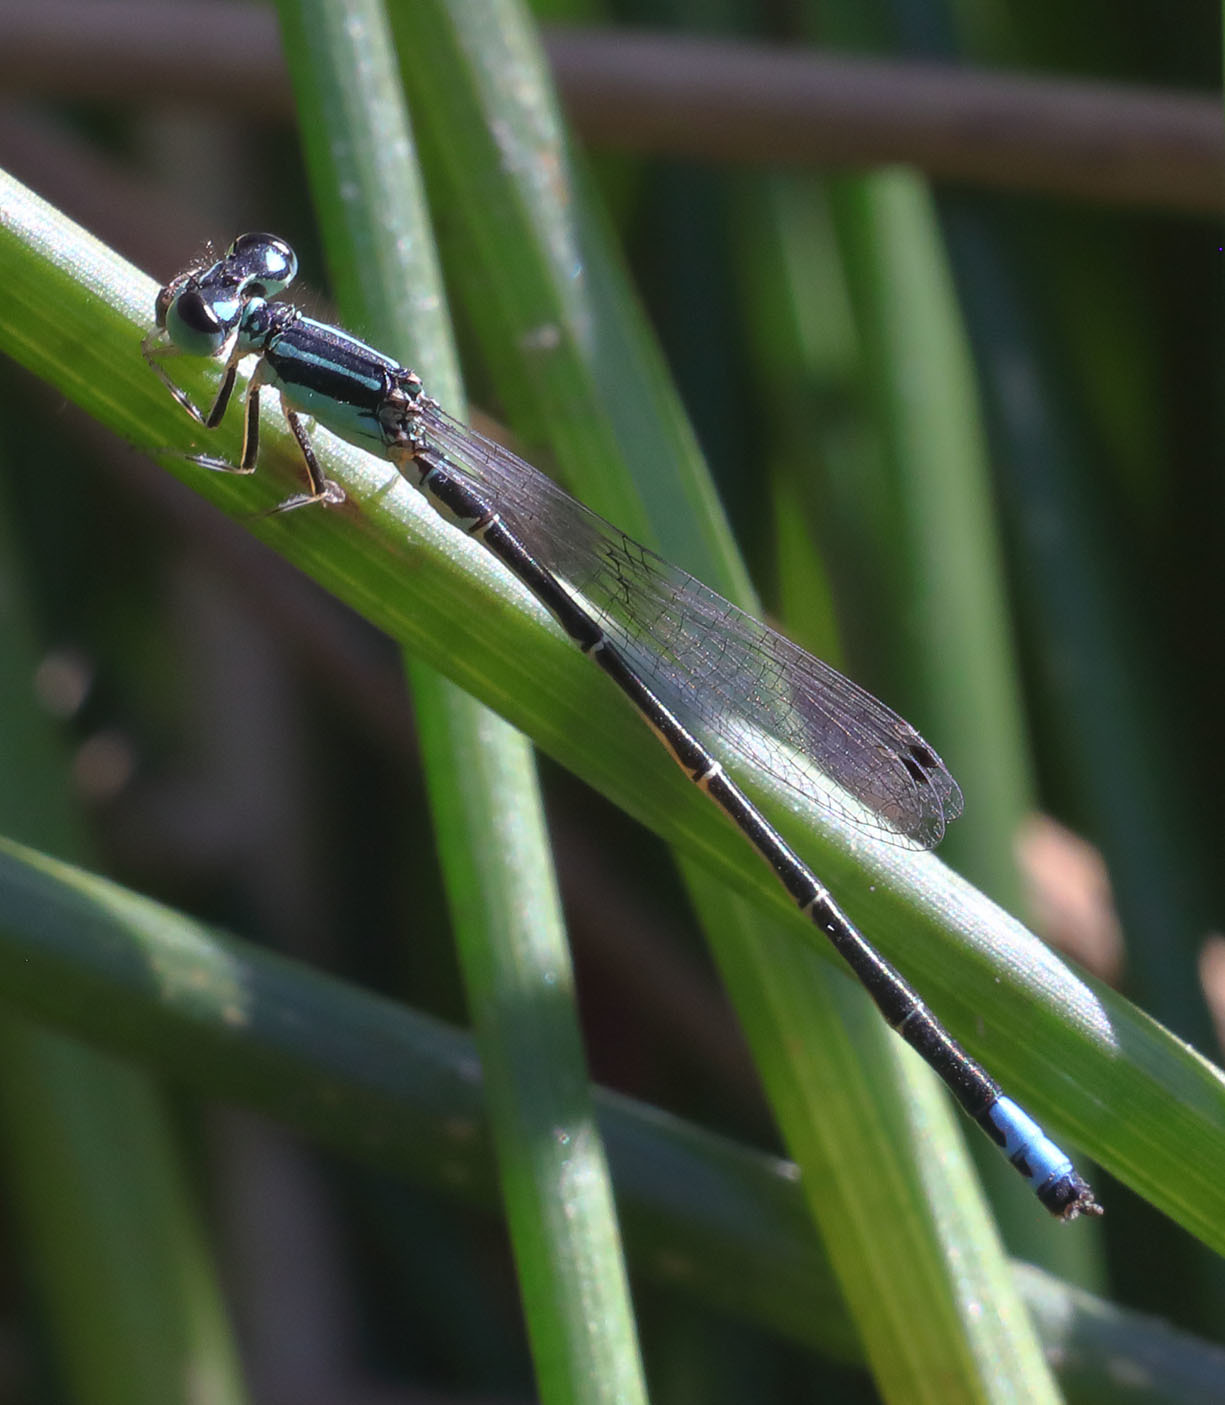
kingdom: Animalia
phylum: Arthropoda
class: Insecta
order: Odonata
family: Coenagrionidae
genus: Ischnura
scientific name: Ischnura perparva
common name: Western forktail
